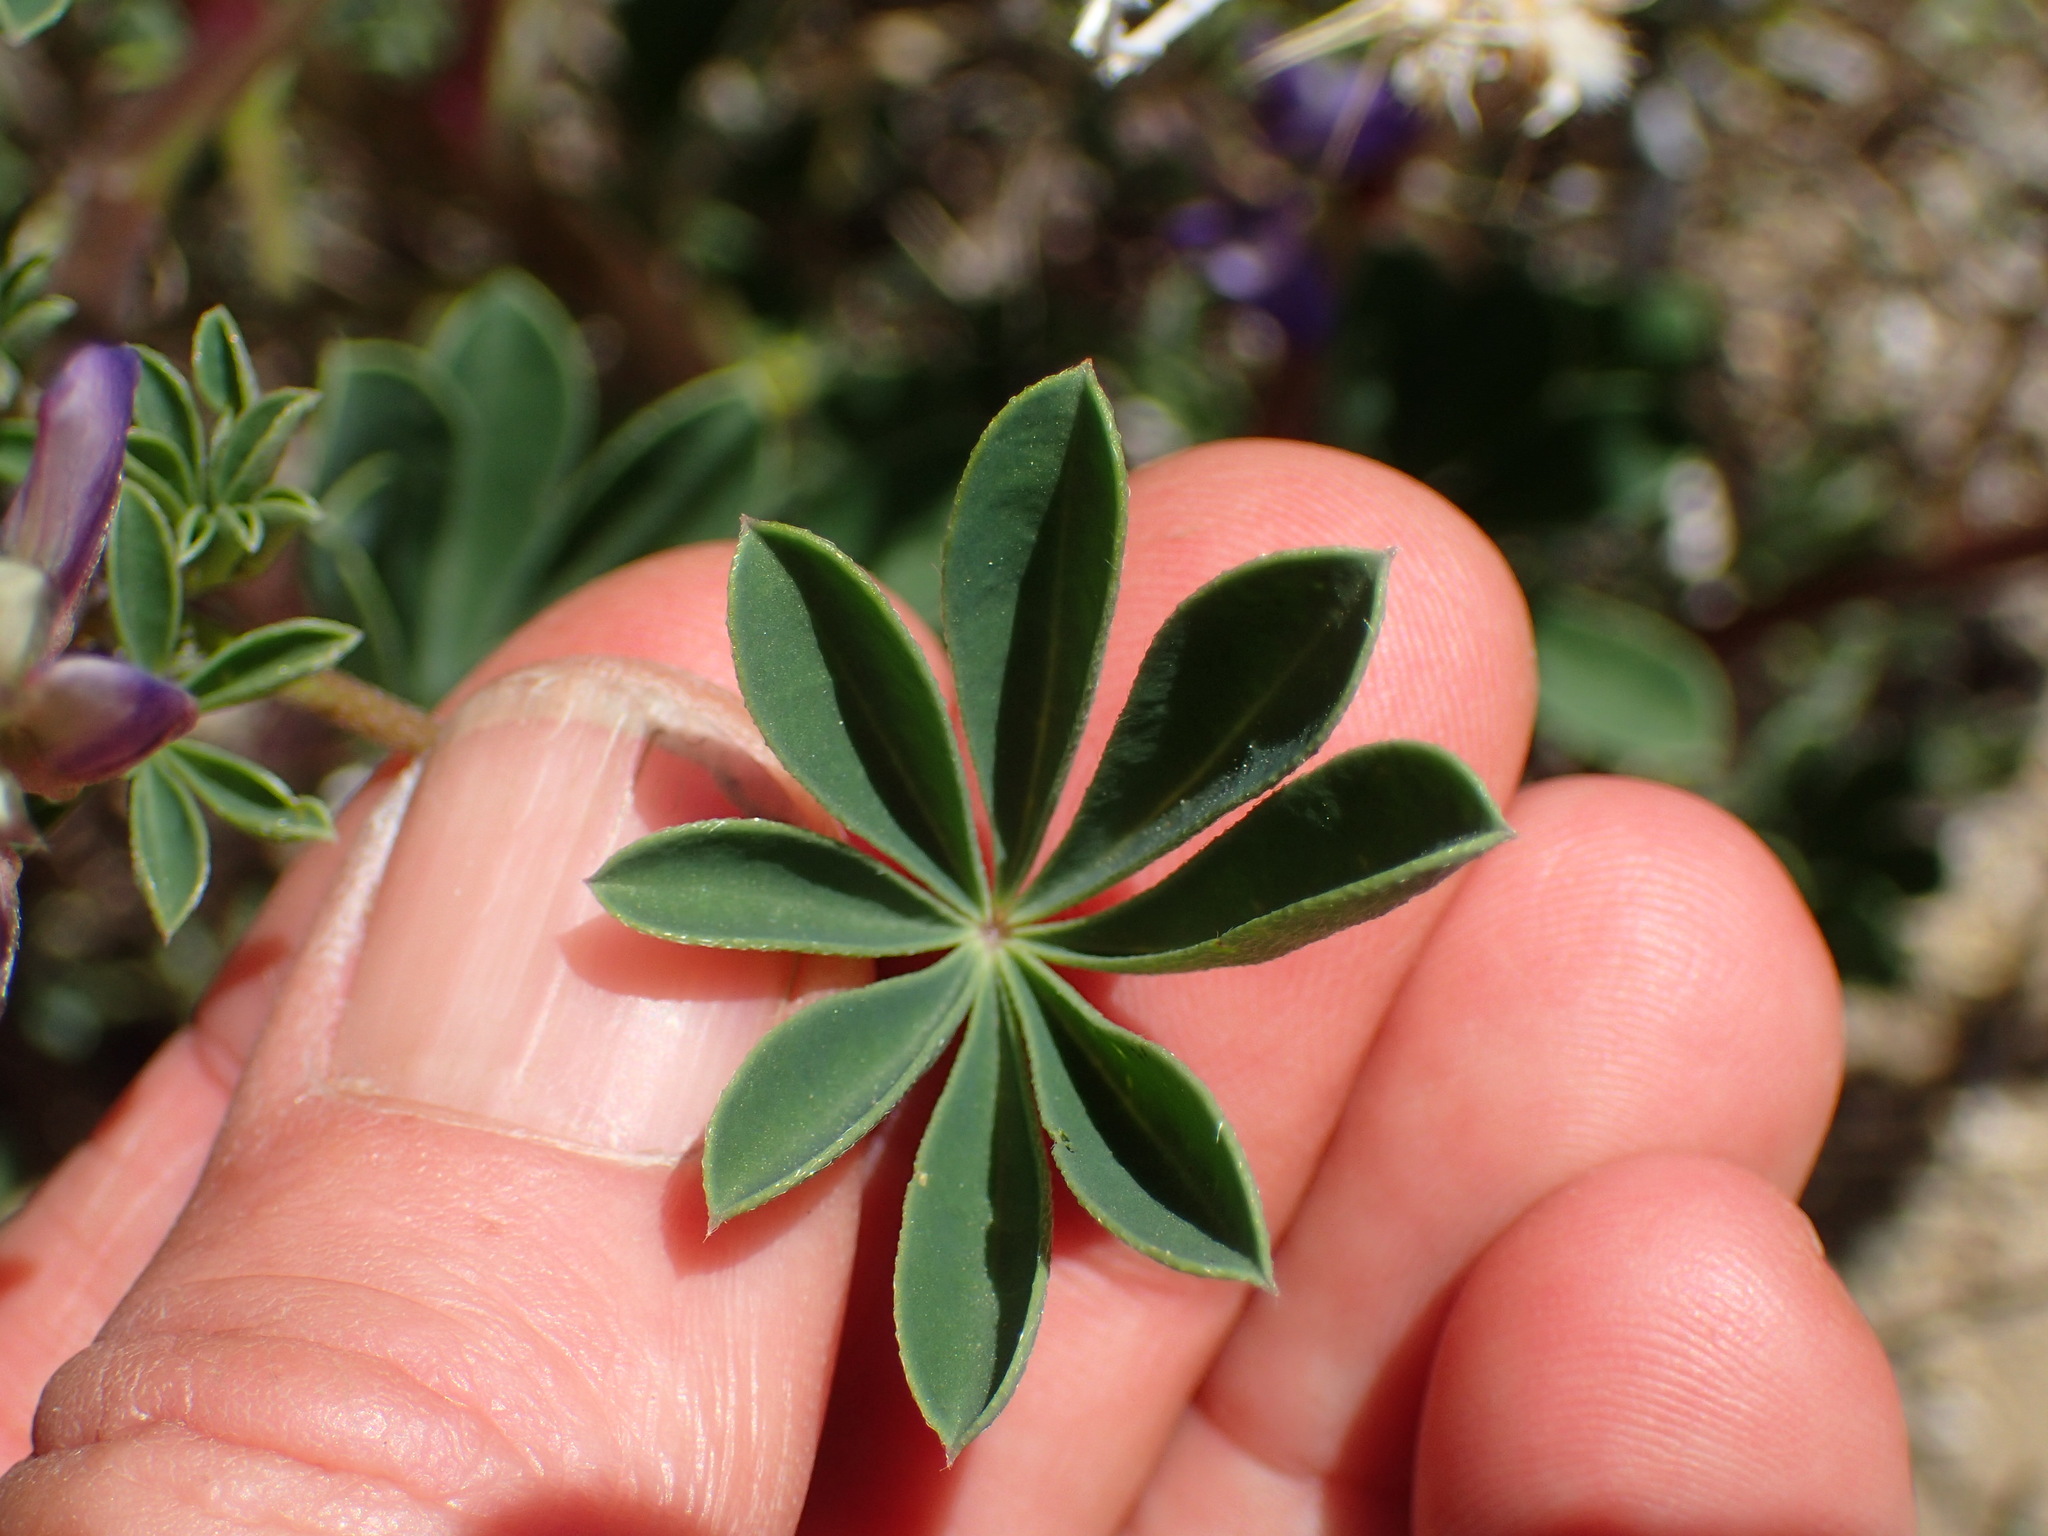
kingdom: Plantae
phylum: Tracheophyta
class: Magnoliopsida
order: Fabales
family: Fabaceae
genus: Lupinus
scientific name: Lupinus succulentus
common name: Arroyo lupine
